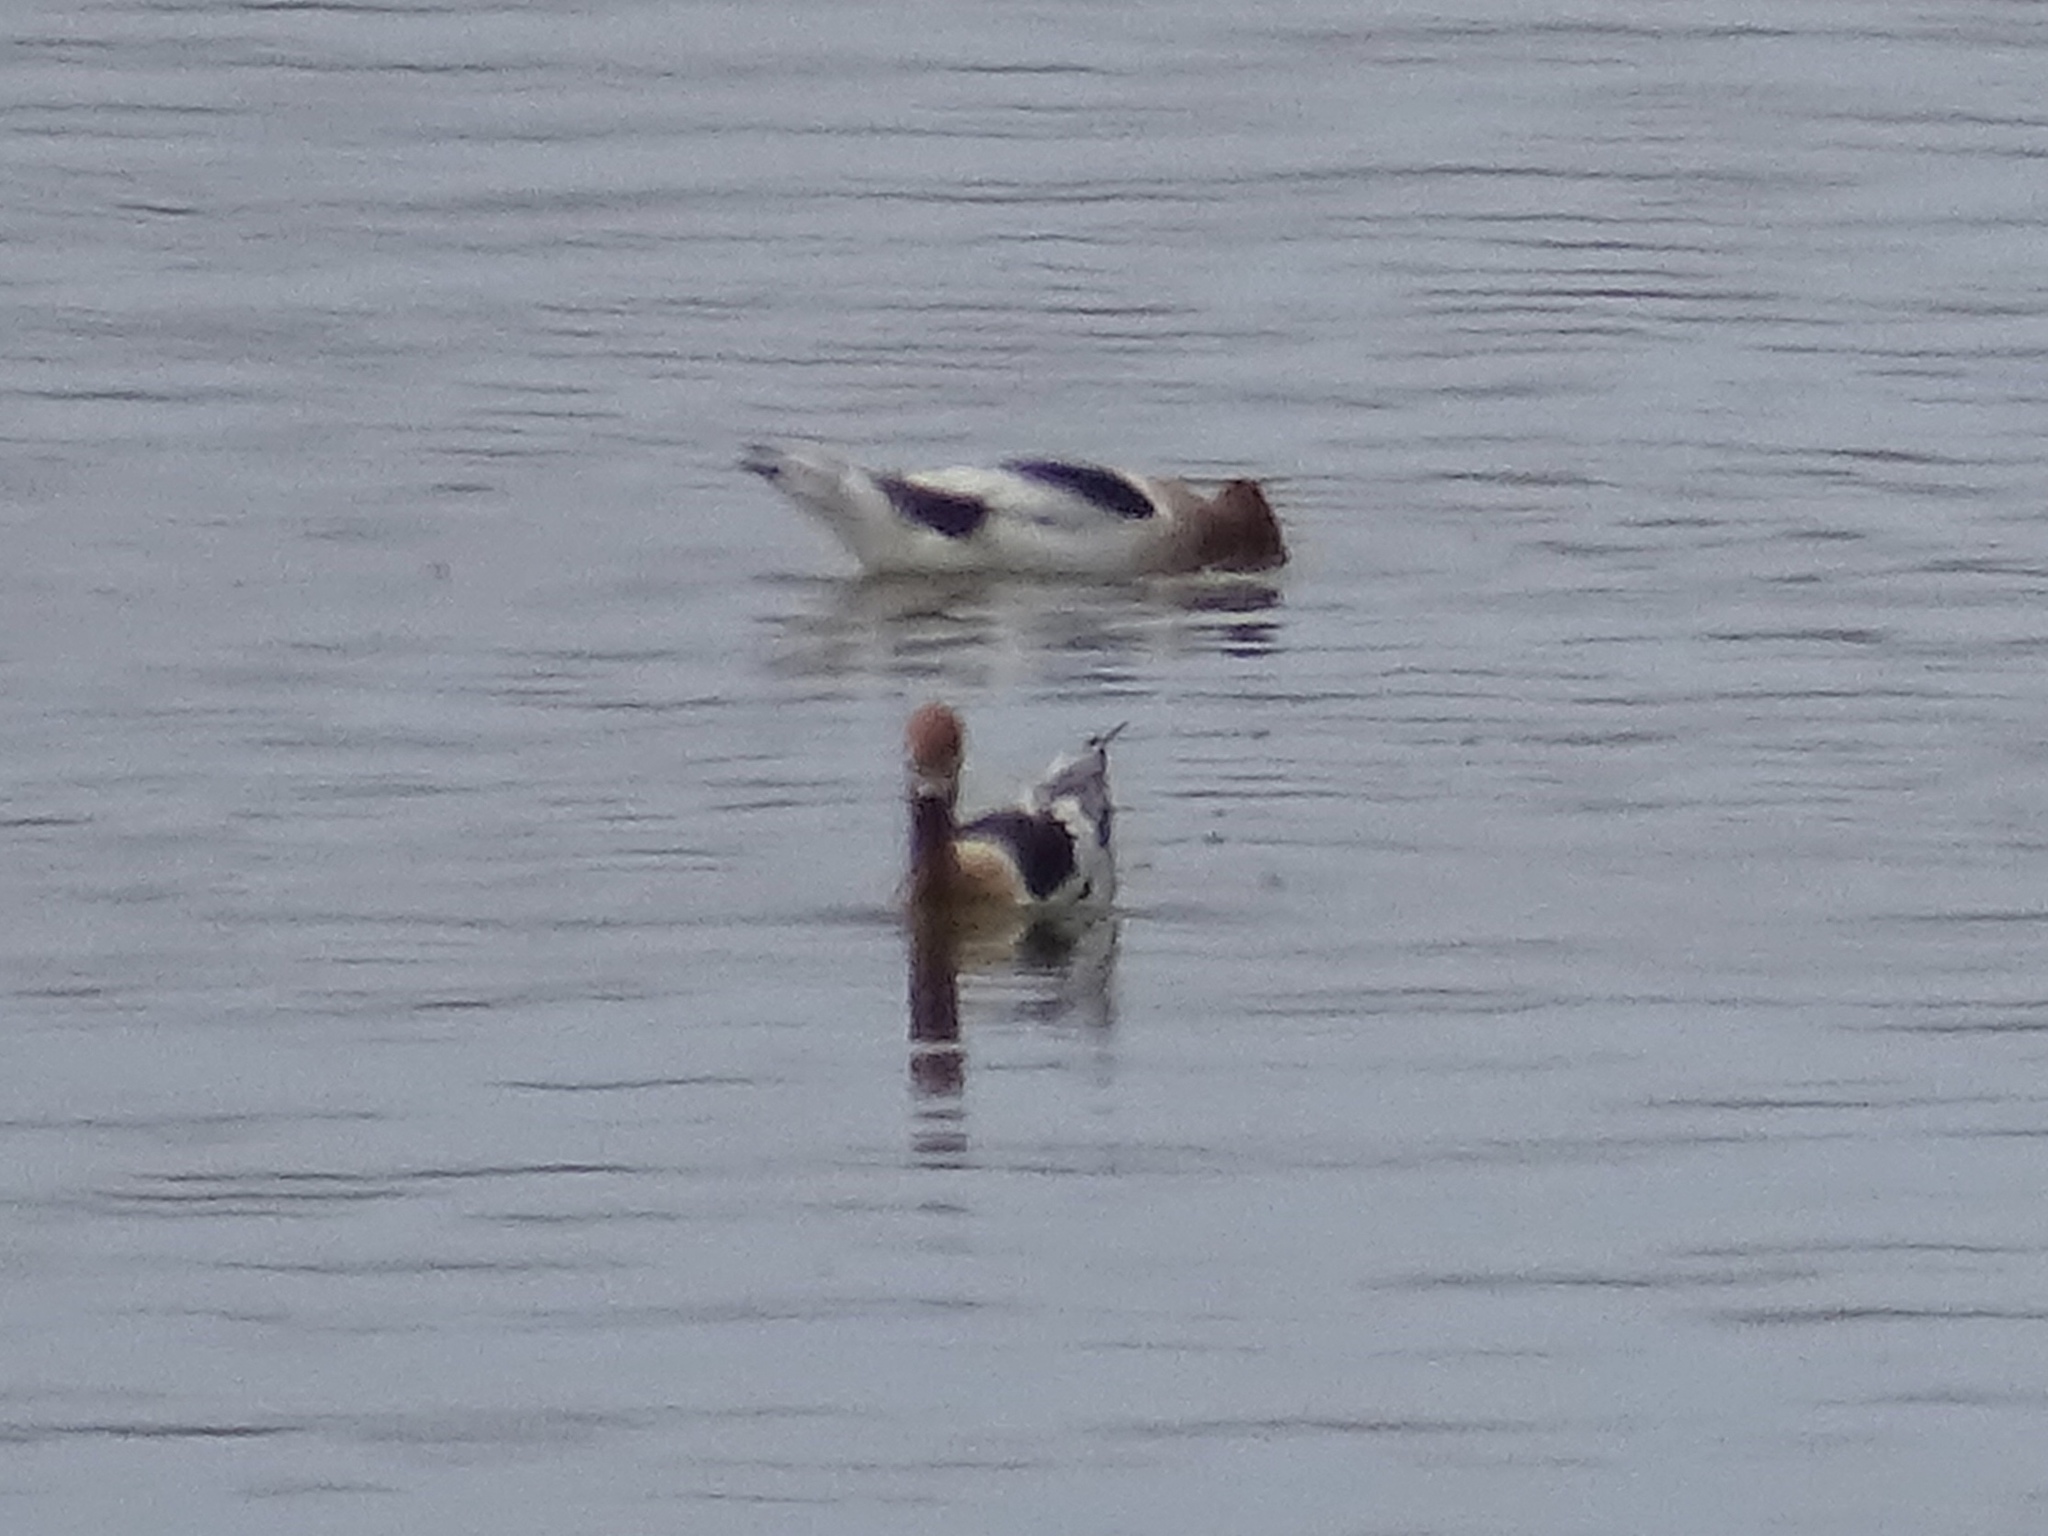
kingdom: Animalia
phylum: Chordata
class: Aves
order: Charadriiformes
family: Recurvirostridae
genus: Recurvirostra
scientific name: Recurvirostra americana
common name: American avocet
